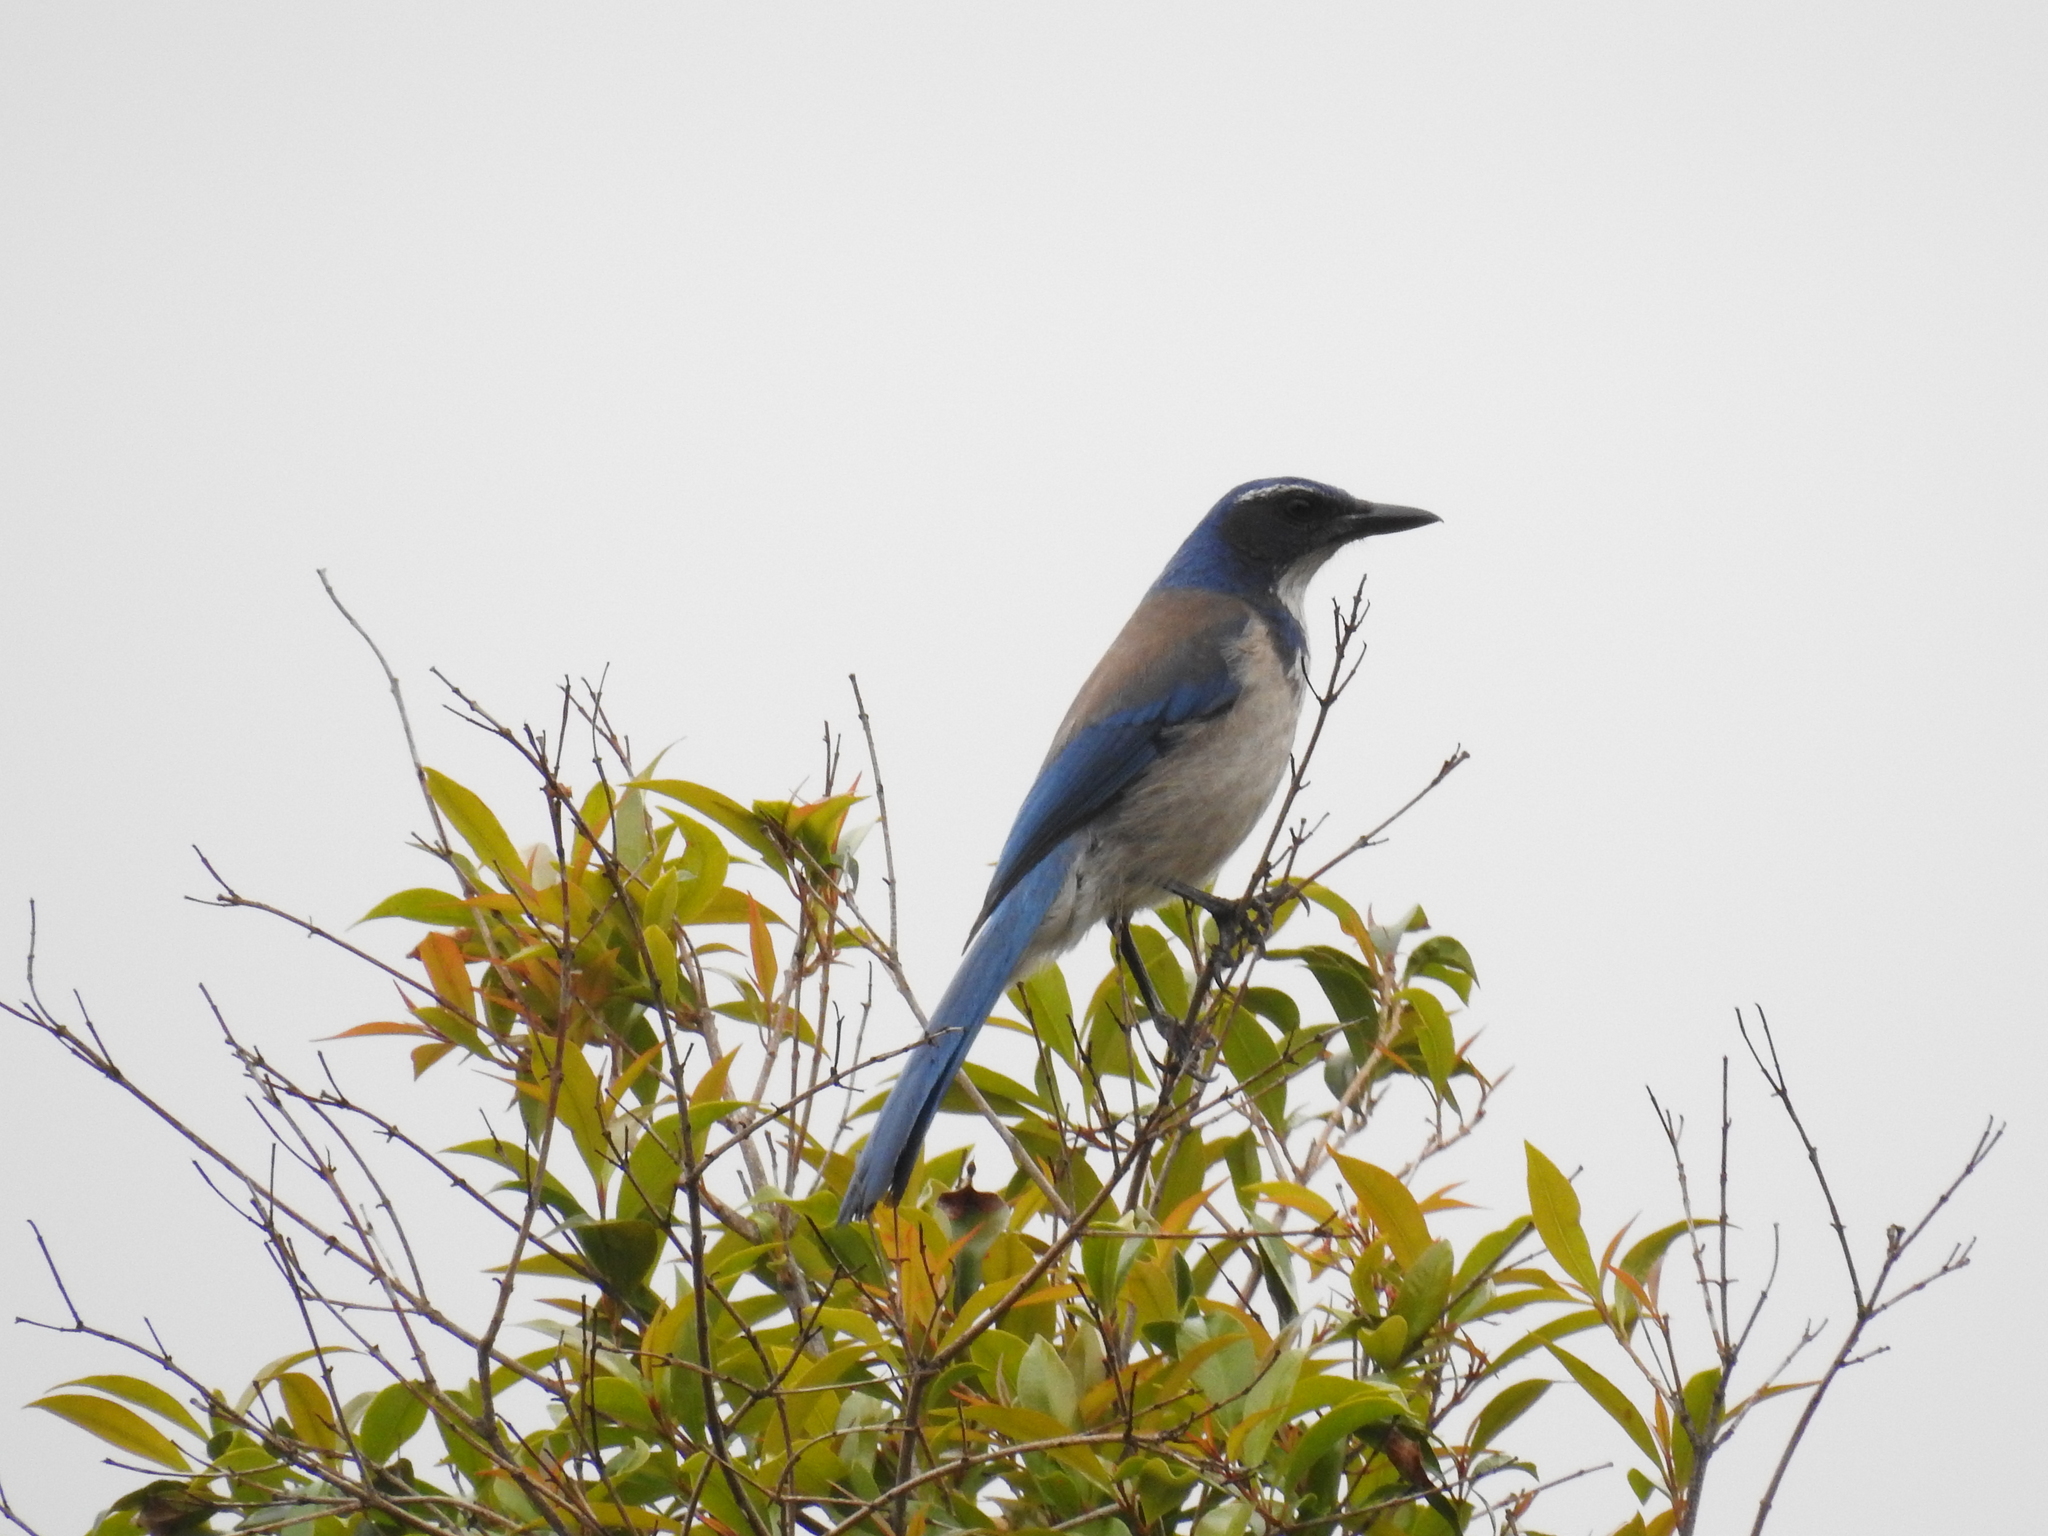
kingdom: Animalia
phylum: Chordata
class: Aves
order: Passeriformes
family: Corvidae
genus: Aphelocoma
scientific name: Aphelocoma californica
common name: California scrub-jay
